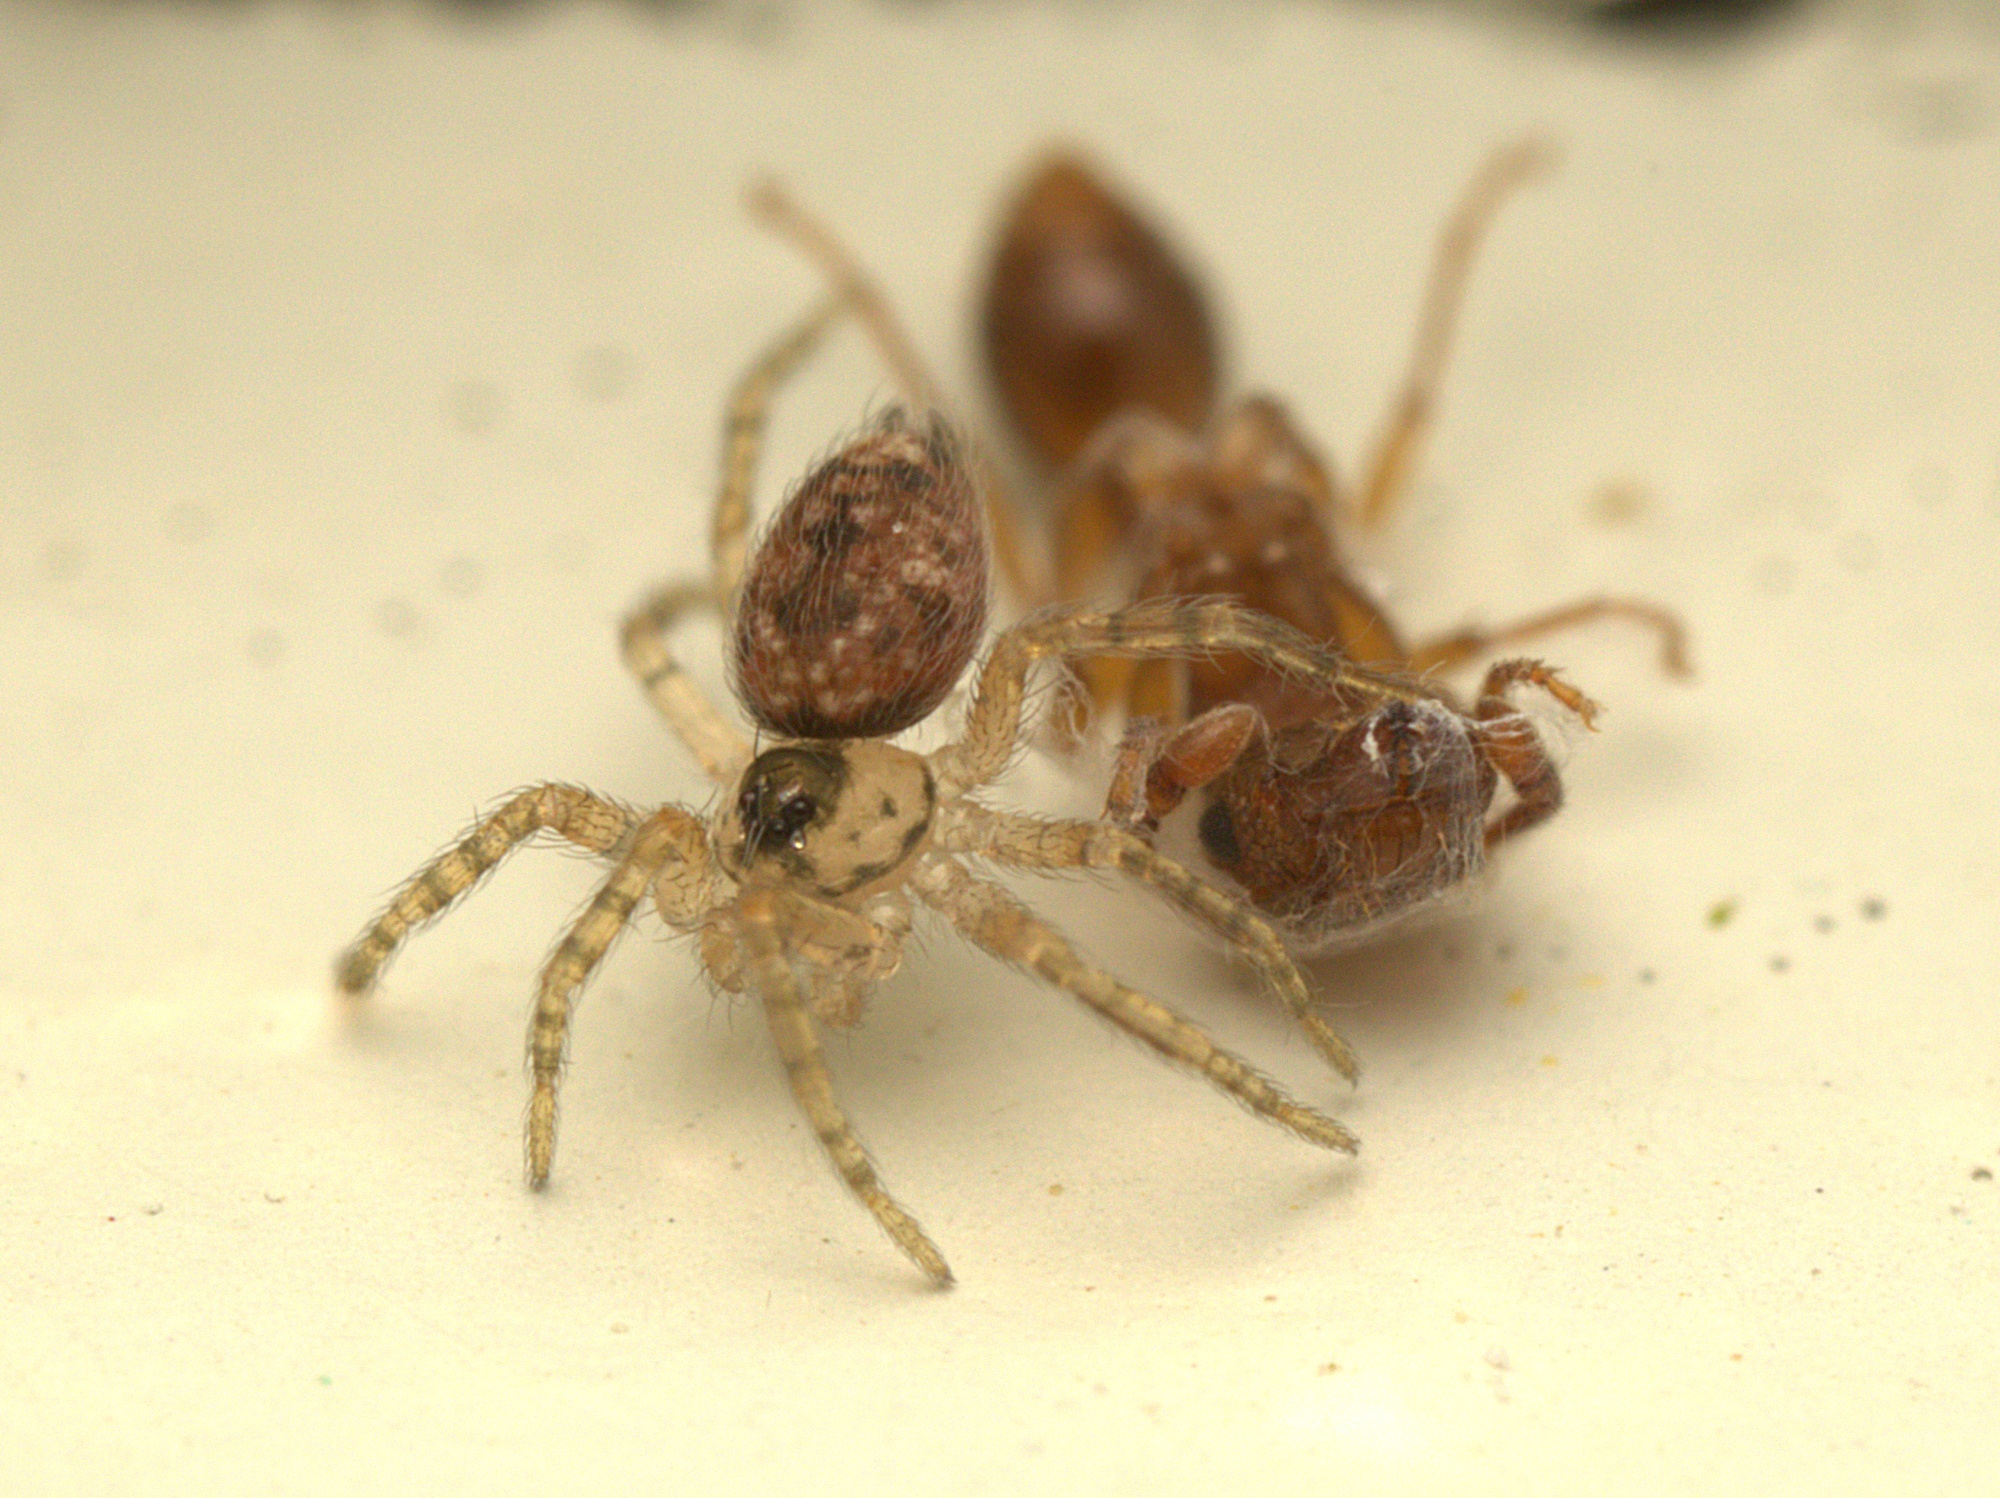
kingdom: Animalia
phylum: Arthropoda
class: Arachnida
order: Araneae
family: Oecobiidae
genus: Oecobius
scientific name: Oecobius navus
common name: Flatmesh weaver
